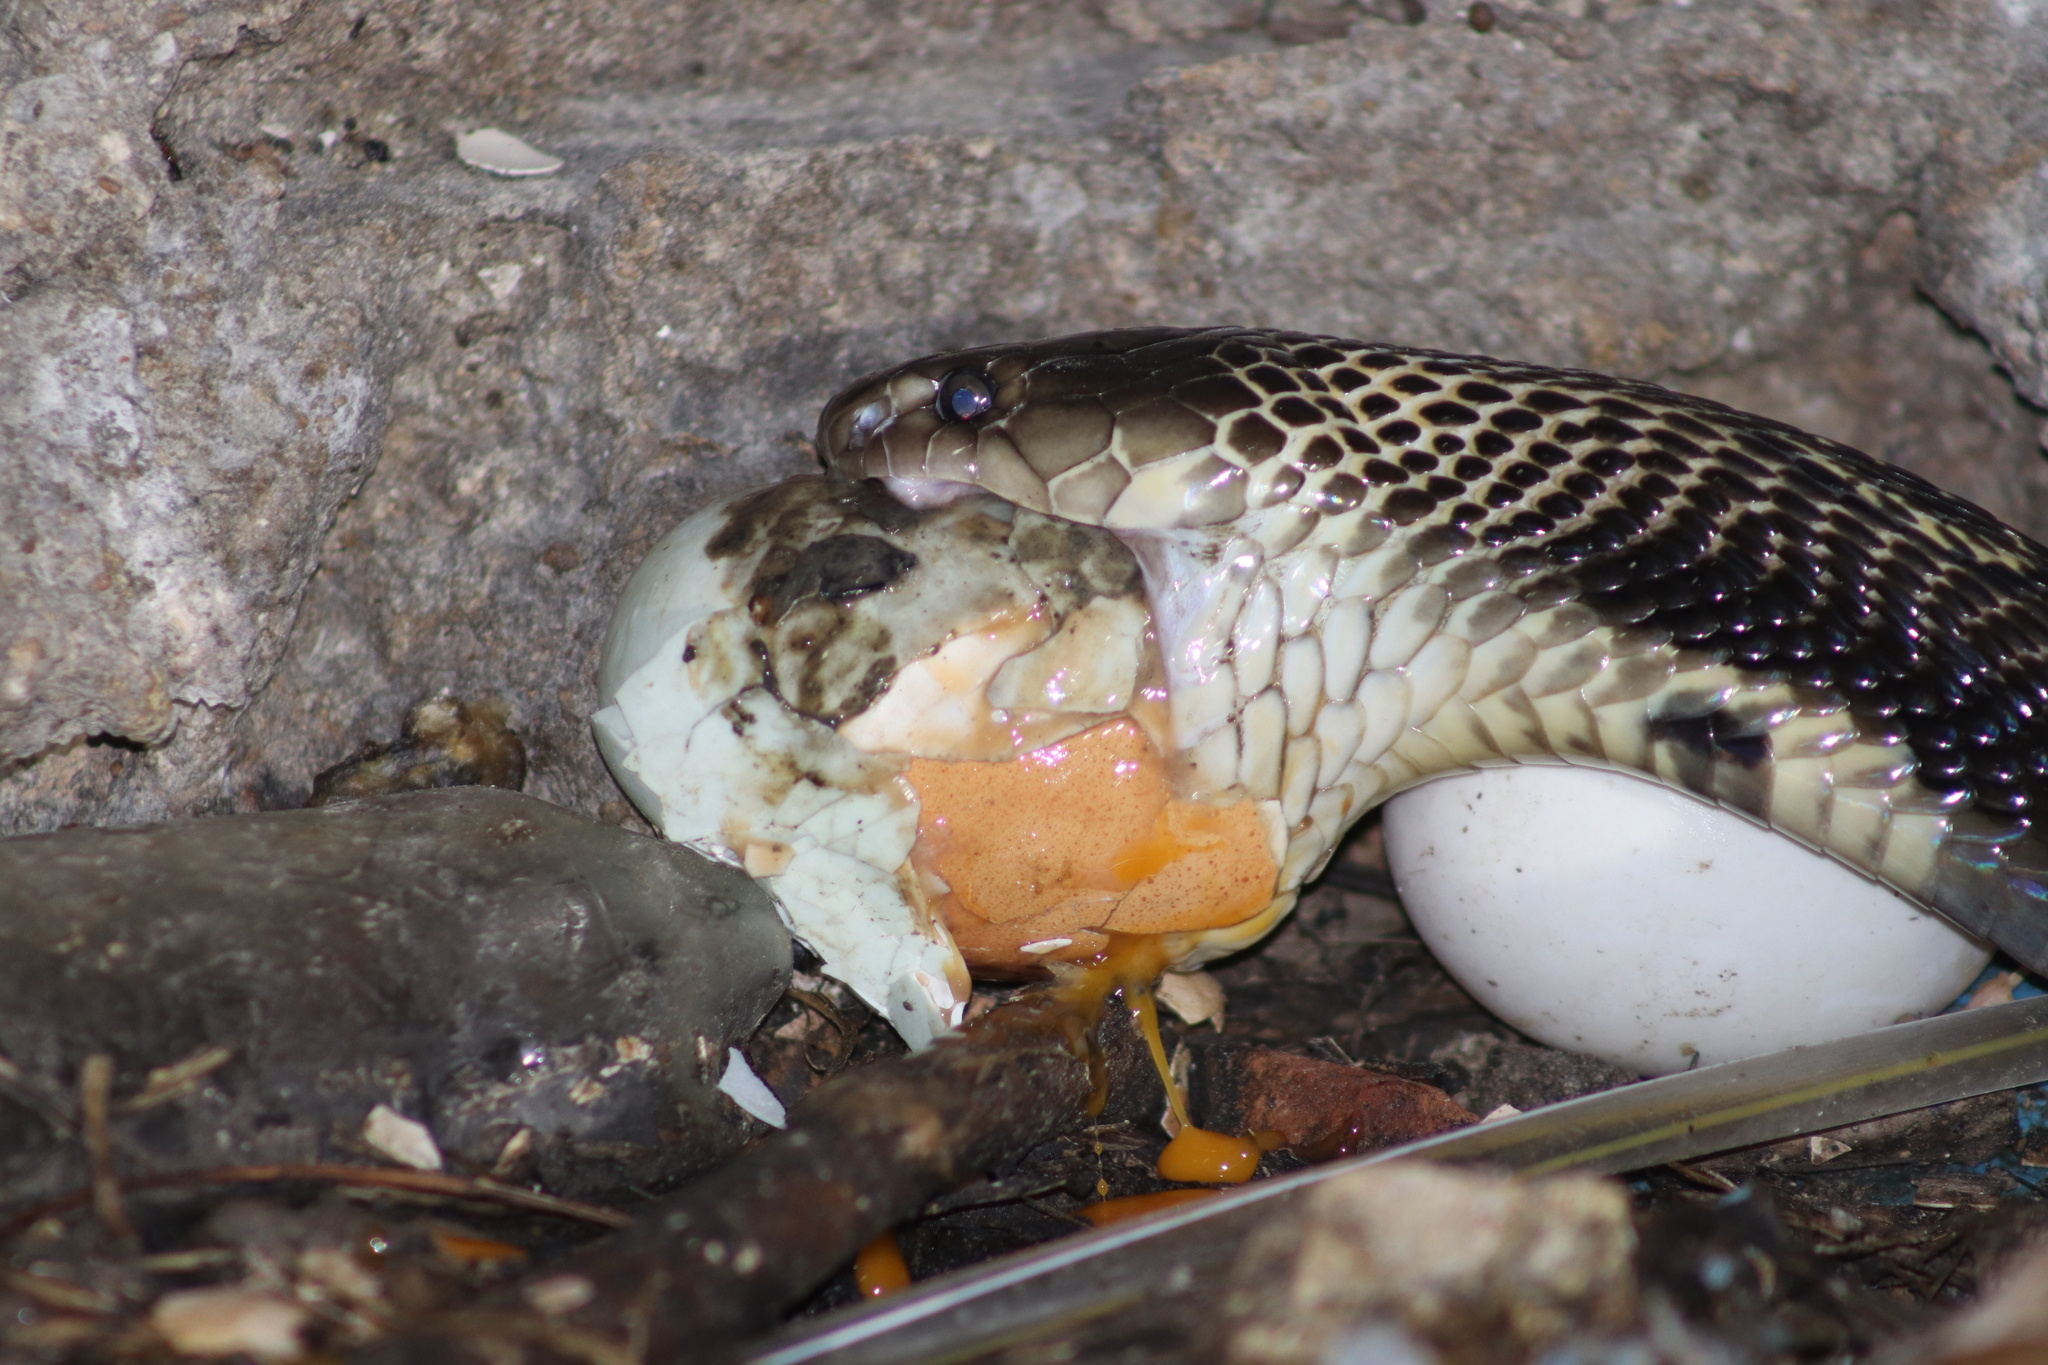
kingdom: Animalia
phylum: Chordata
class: Squamata
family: Elapidae
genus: Naja
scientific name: Naja kaouthia
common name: Monocled cobra
